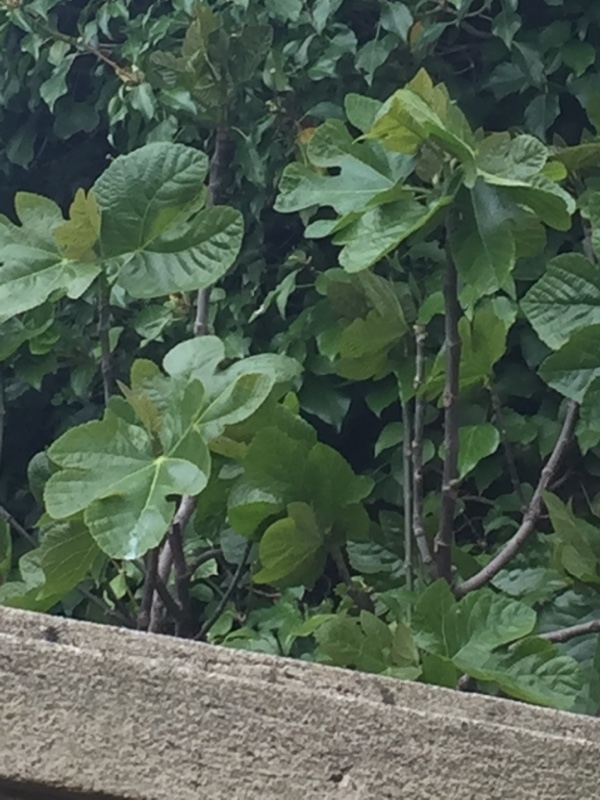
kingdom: Plantae
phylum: Tracheophyta
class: Magnoliopsida
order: Rosales
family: Moraceae
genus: Ficus
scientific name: Ficus carica
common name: Fig
